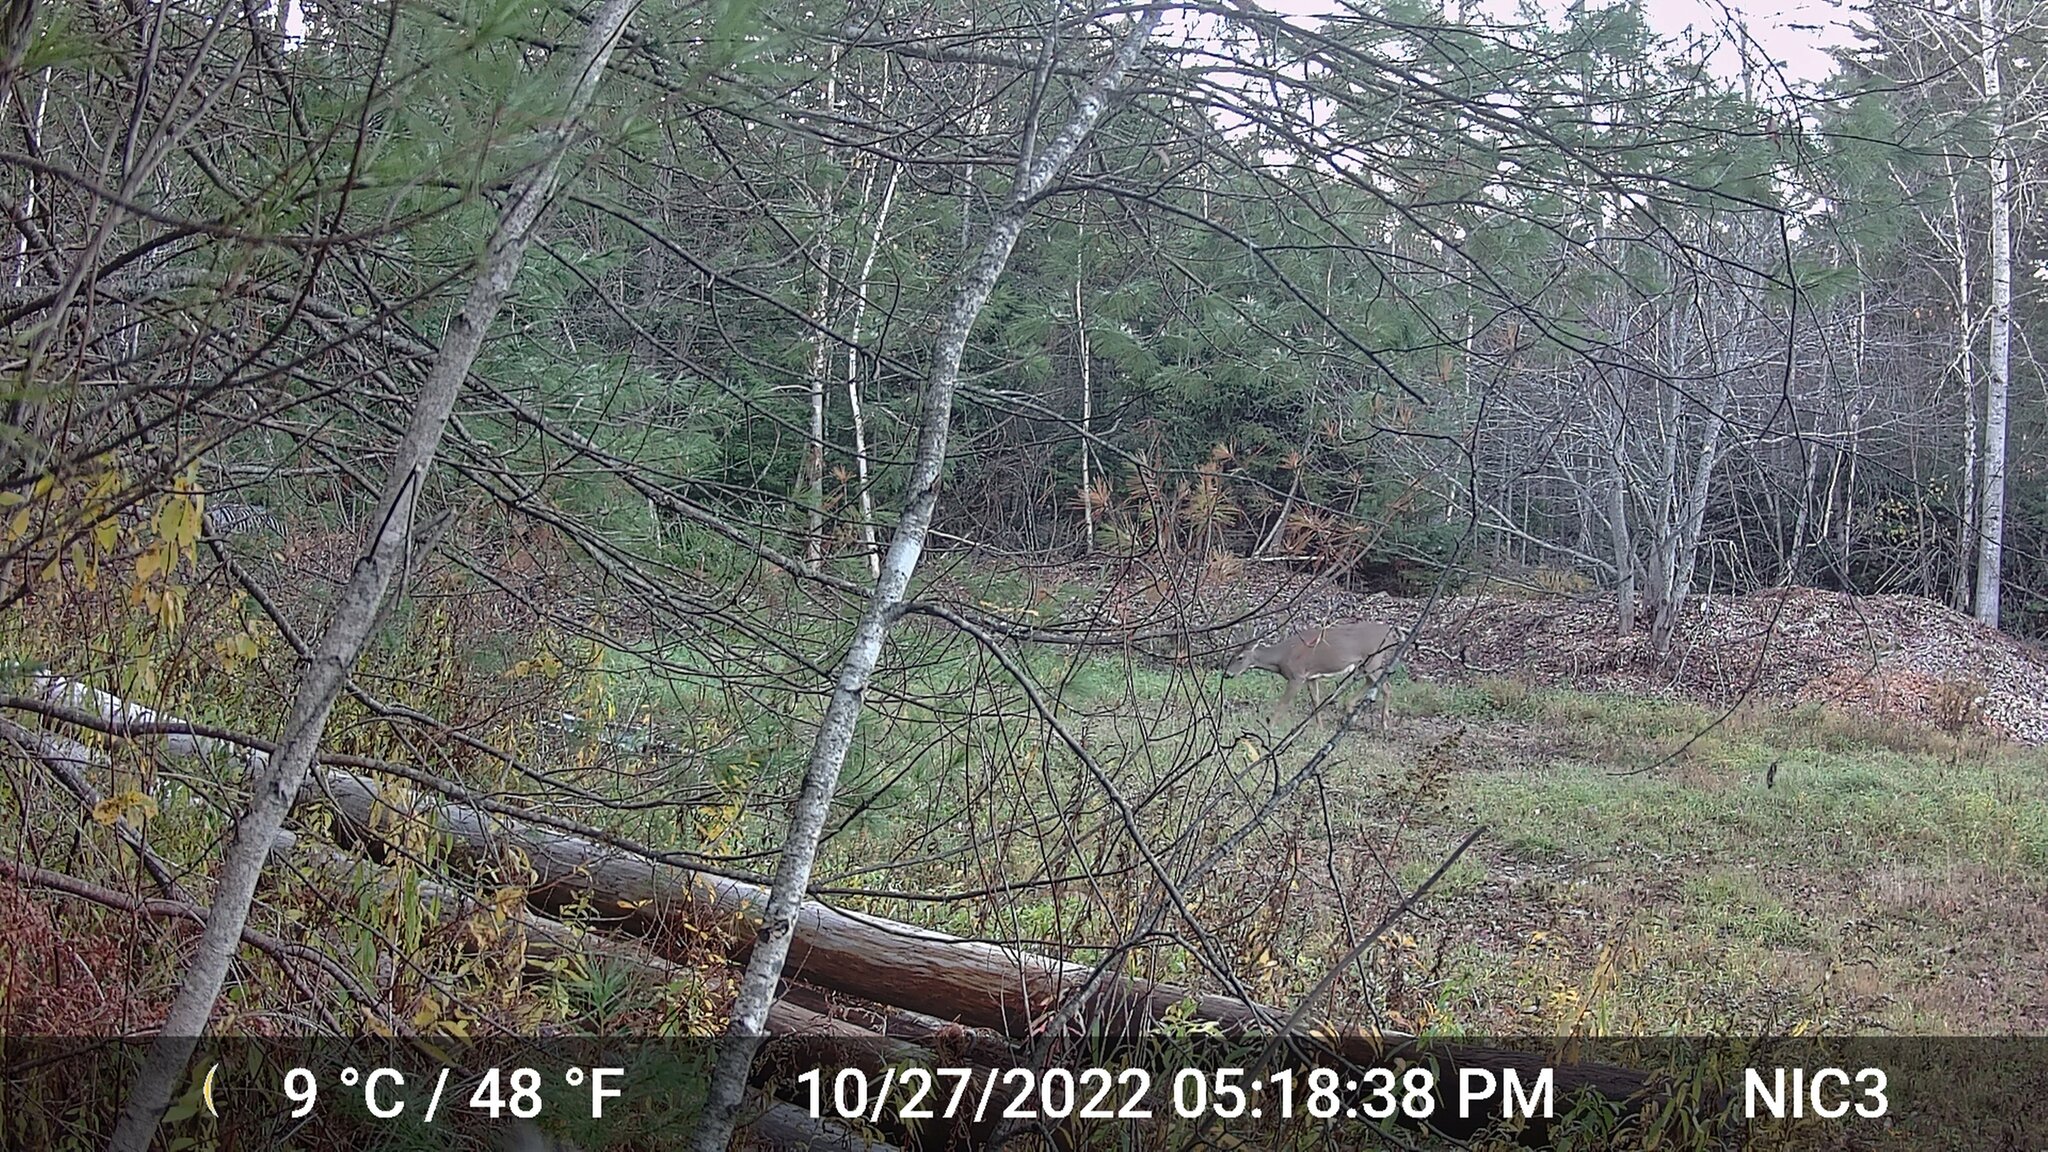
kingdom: Animalia
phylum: Chordata
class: Mammalia
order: Artiodactyla
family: Cervidae
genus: Odocoileus
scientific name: Odocoileus virginianus
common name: White-tailed deer
